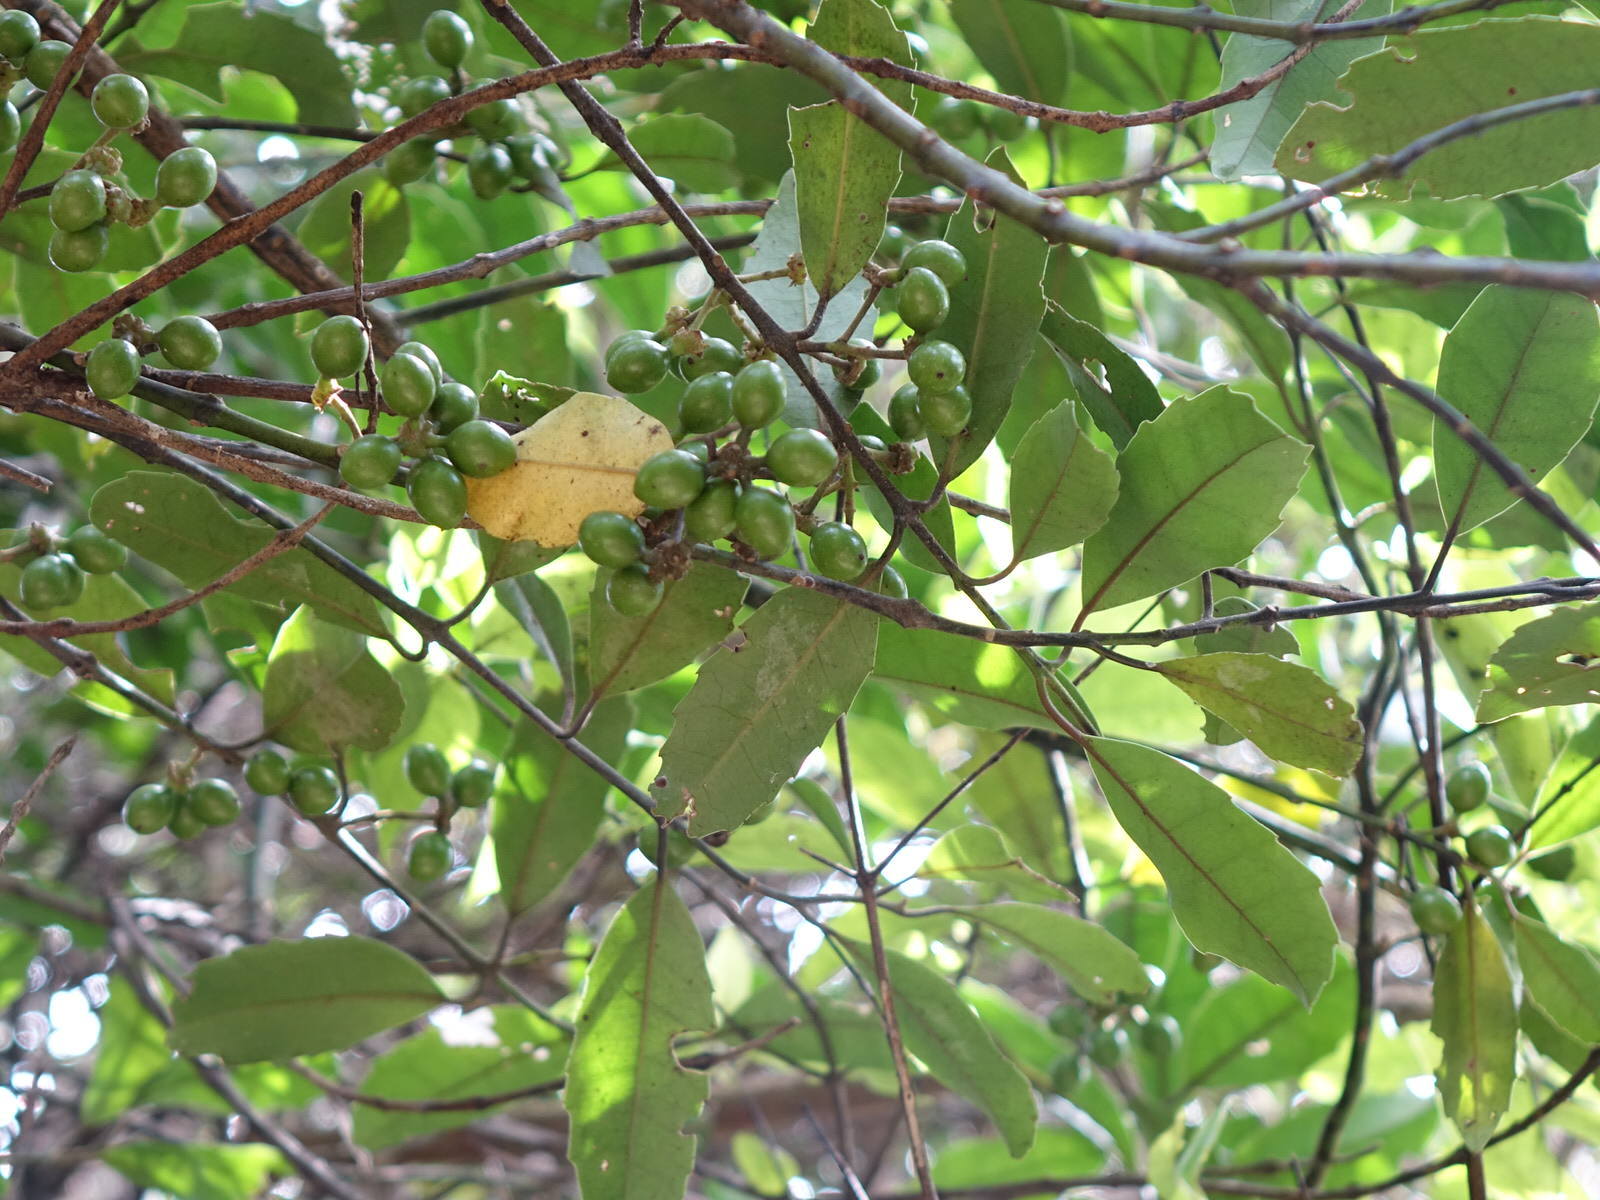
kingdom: Plantae
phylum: Tracheophyta
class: Magnoliopsida
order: Laurales
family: Monimiaceae
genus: Hedycarya
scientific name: Hedycarya arborea
